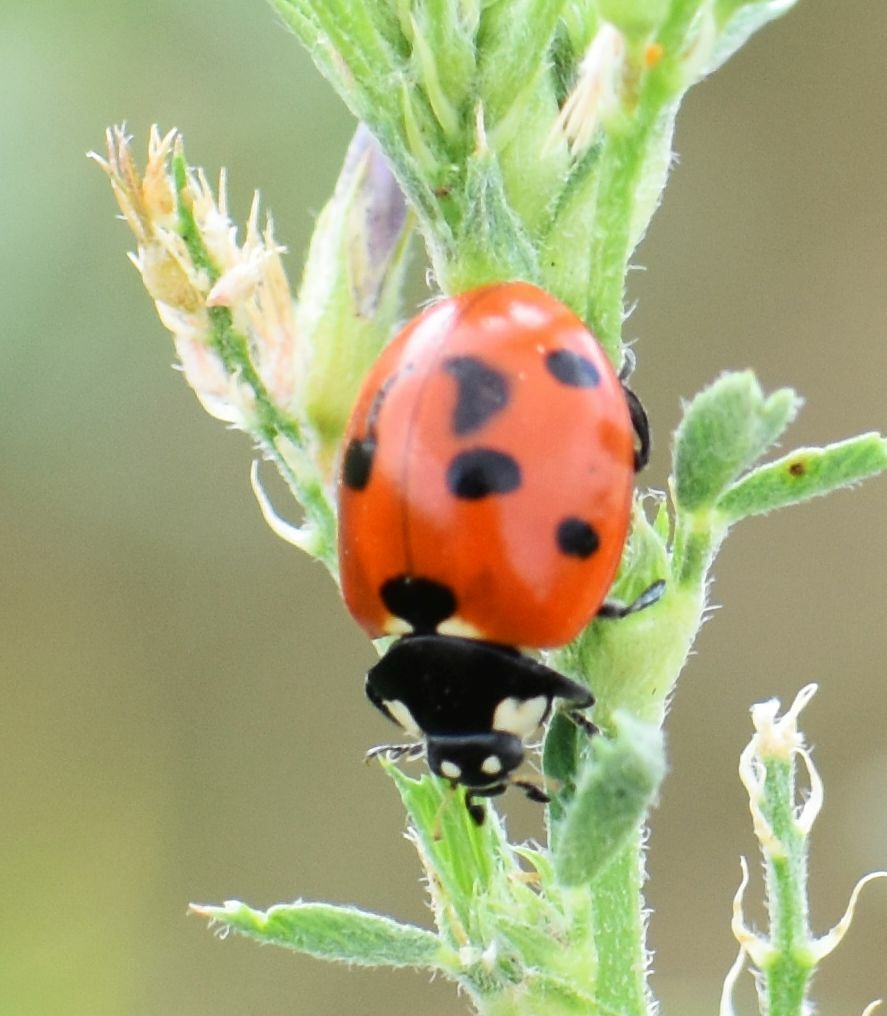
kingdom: Animalia
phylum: Arthropoda
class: Insecta
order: Coleoptera
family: Coccinellidae
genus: Coccinella
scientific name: Coccinella septempunctata
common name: Sevenspotted lady beetle
